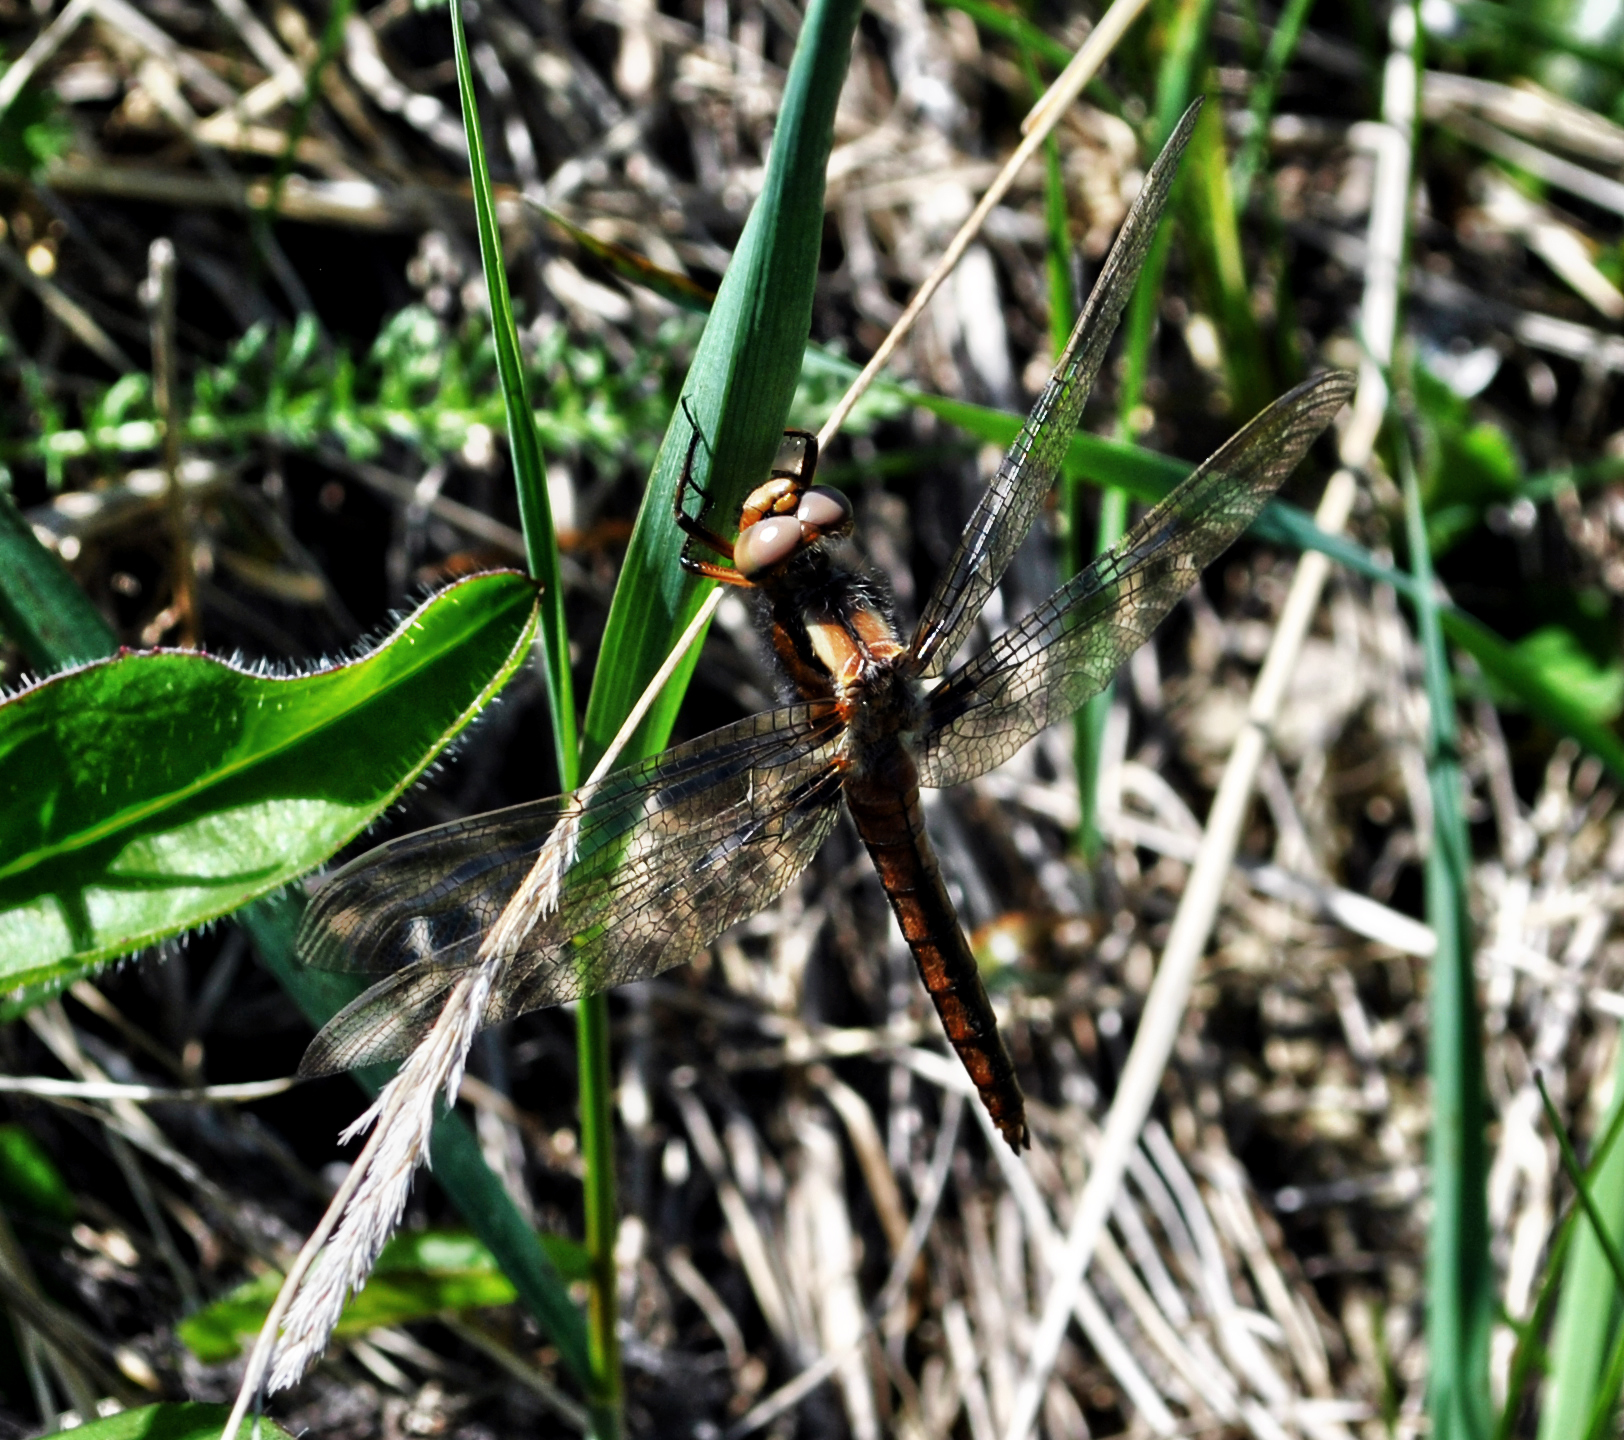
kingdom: Animalia
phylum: Arthropoda
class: Insecta
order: Odonata
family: Libellulidae
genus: Ladona
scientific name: Ladona julia
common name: Chalk-fronted corporal
